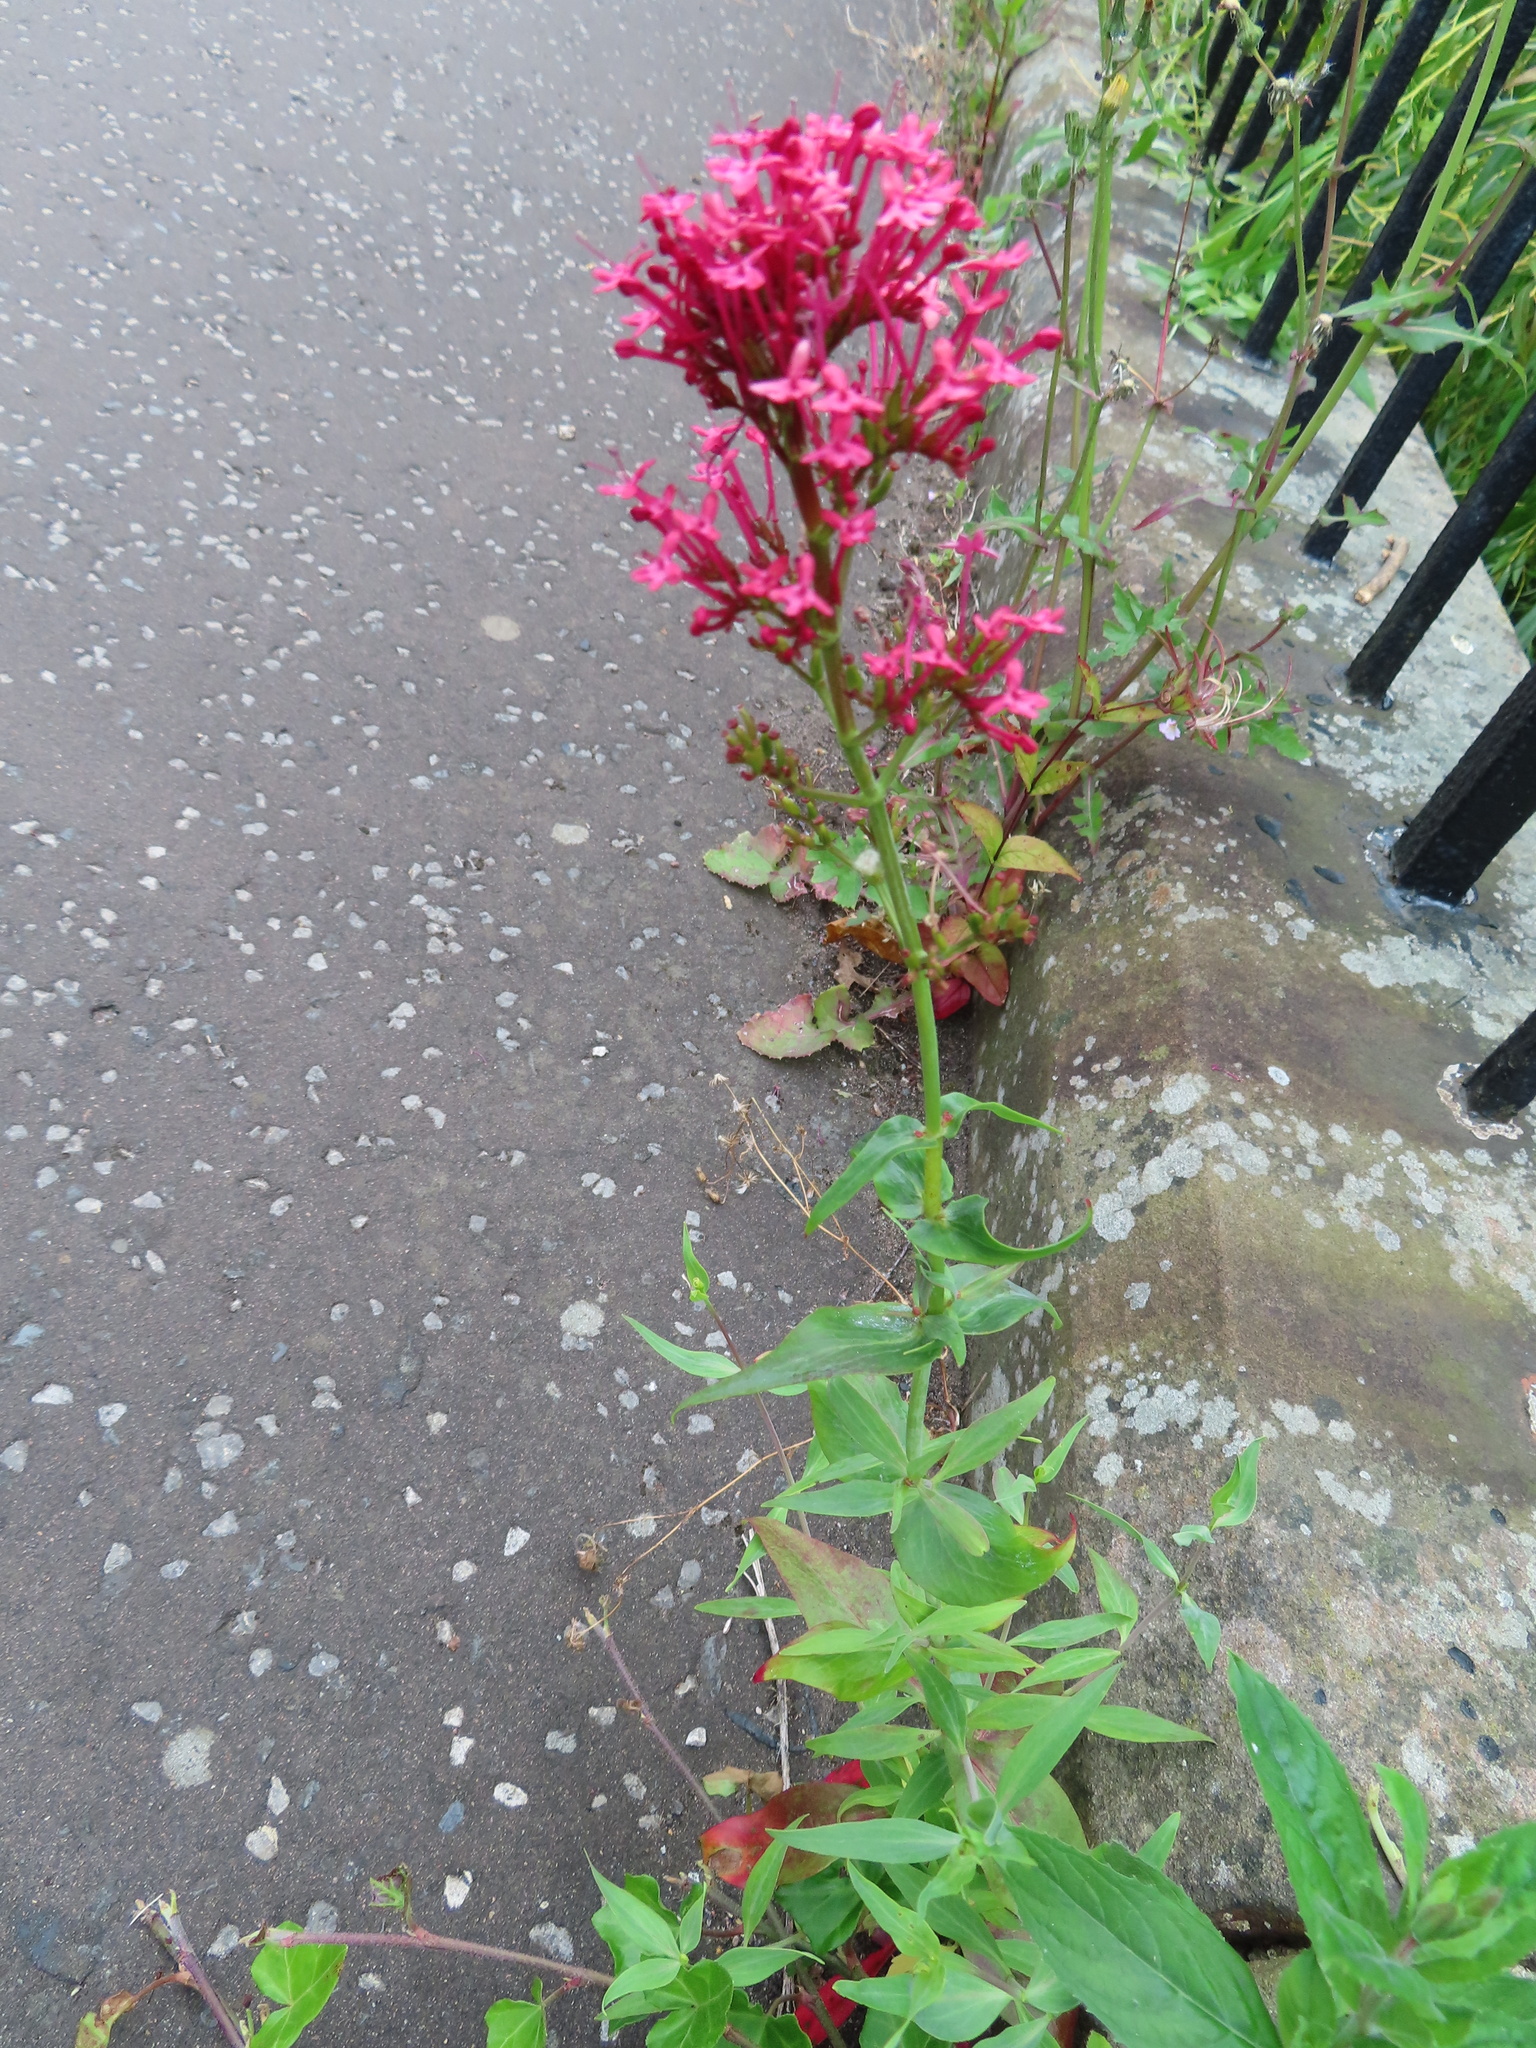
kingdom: Plantae
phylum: Tracheophyta
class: Magnoliopsida
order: Dipsacales
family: Caprifoliaceae
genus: Centranthus
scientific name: Centranthus ruber
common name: Red valerian
